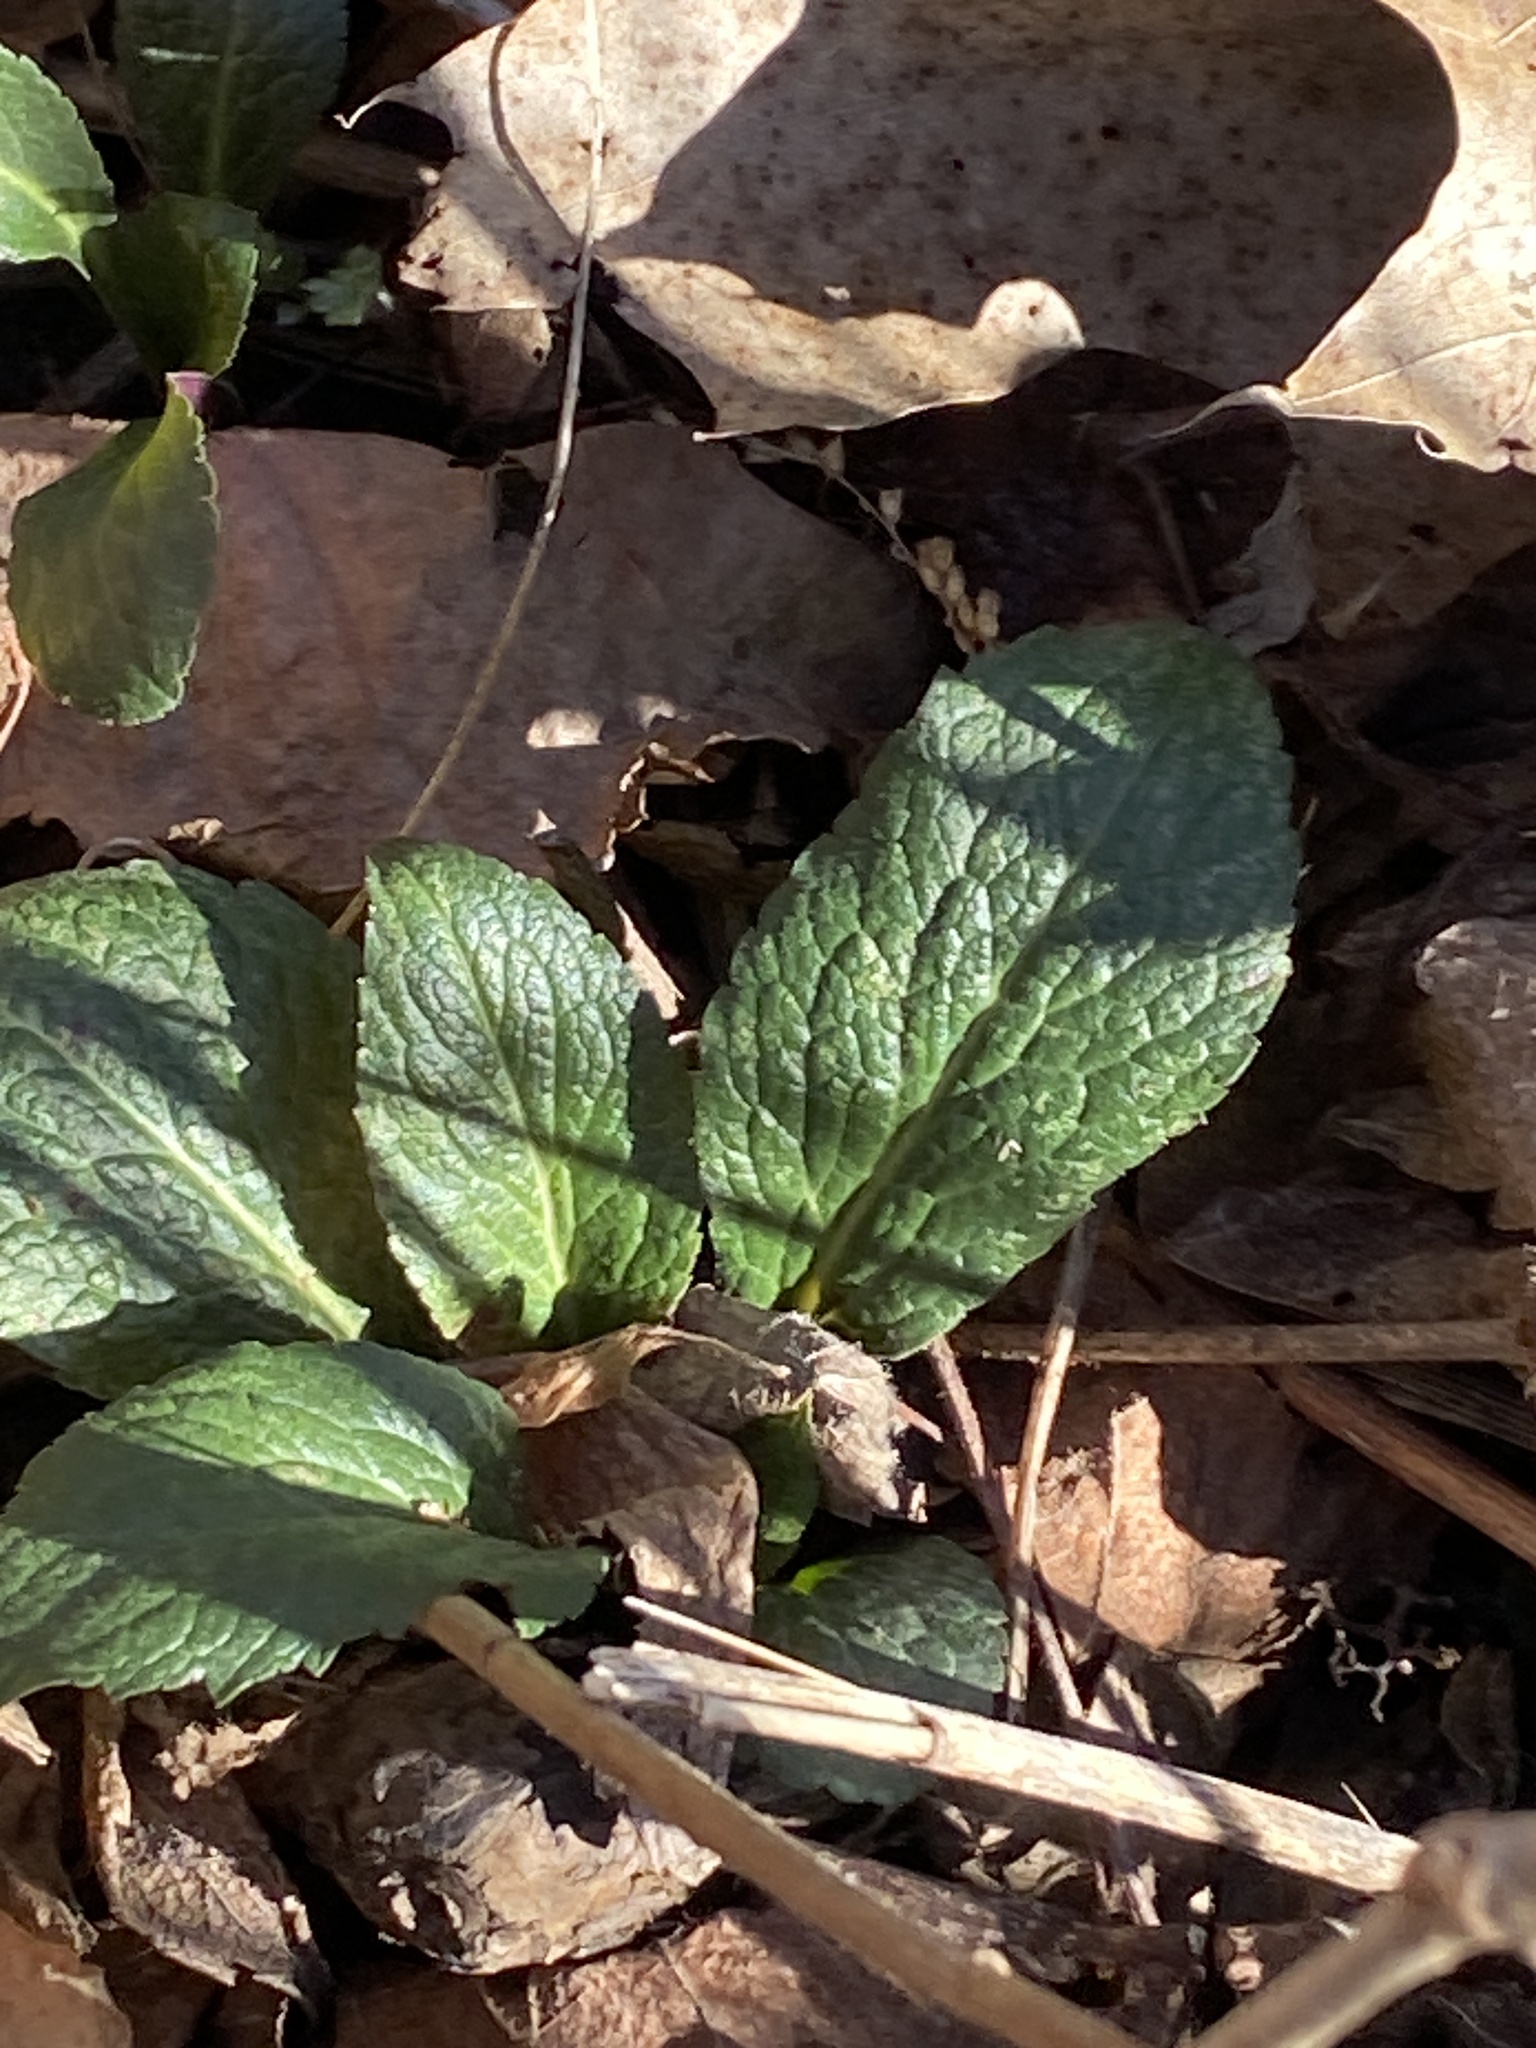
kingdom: Plantae
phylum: Tracheophyta
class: Magnoliopsida
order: Asterales
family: Asteraceae
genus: Solidago
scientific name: Solidago rugosa
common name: Rough-stemmed goldenrod
